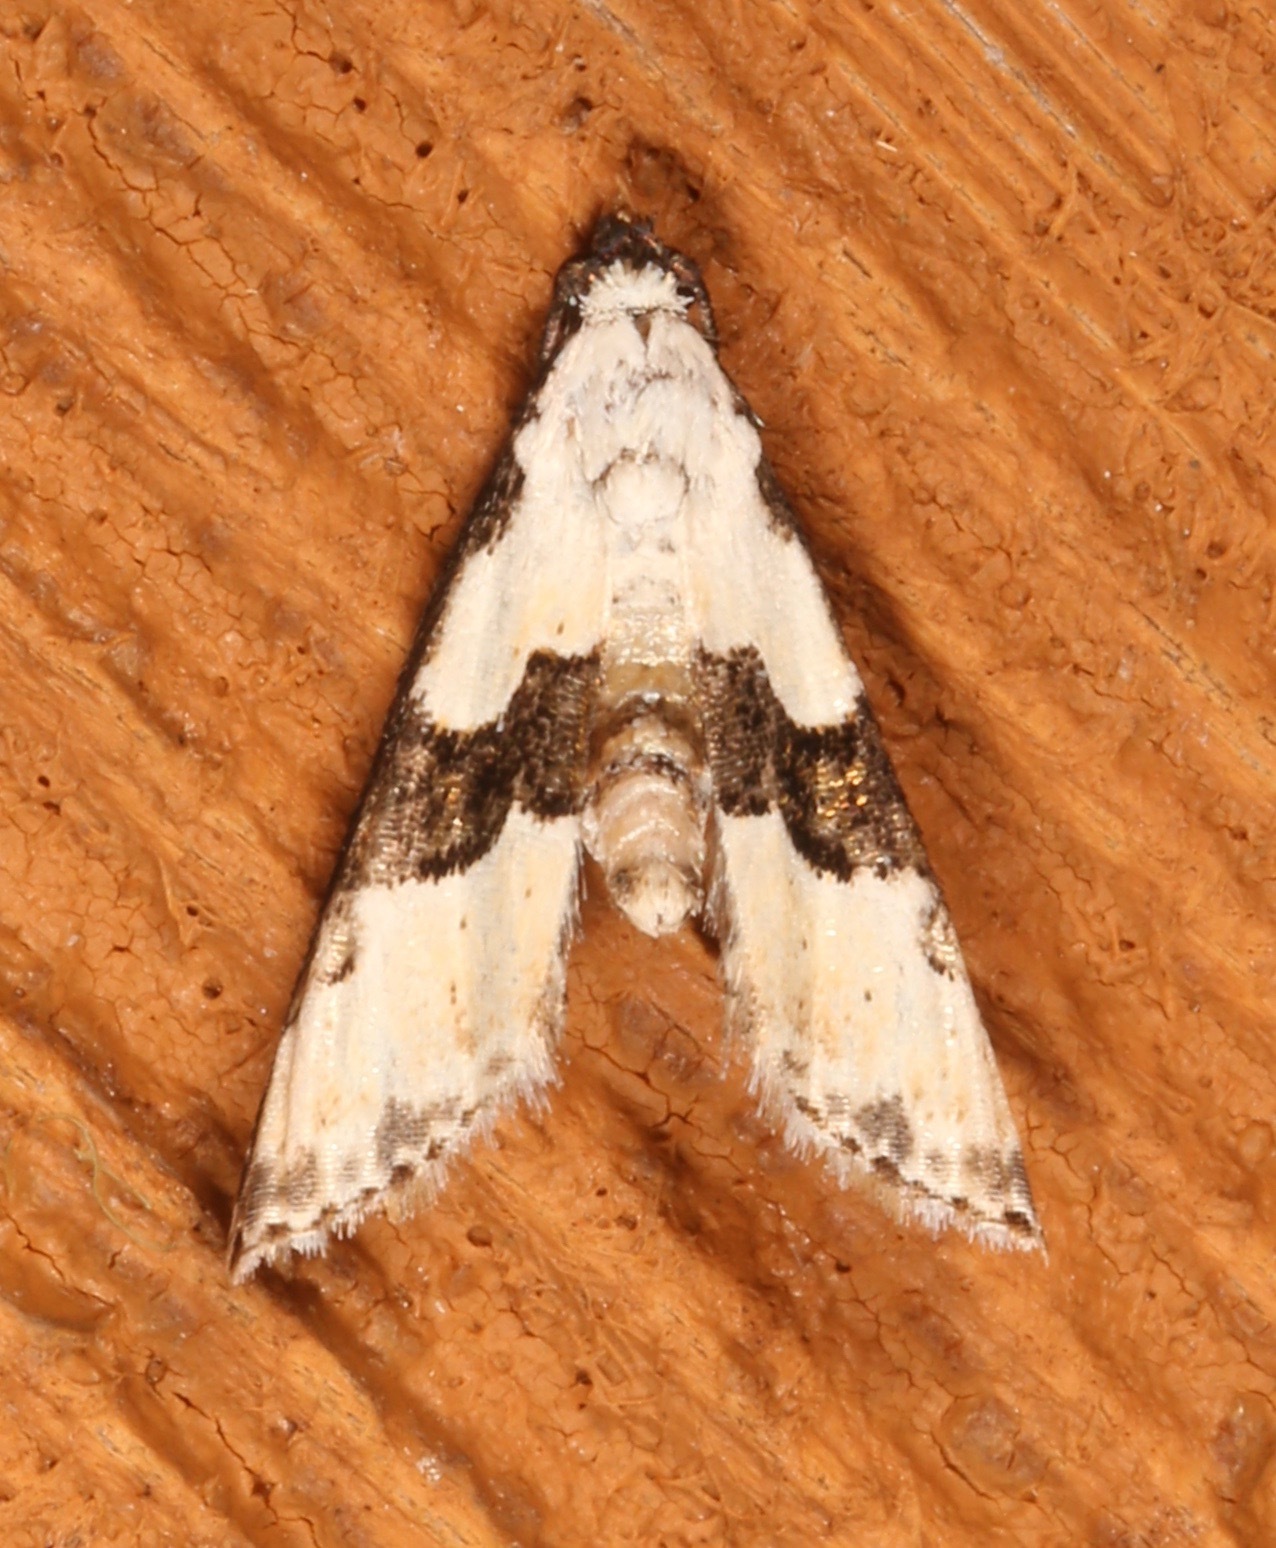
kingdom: Animalia
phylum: Arthropoda
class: Insecta
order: Lepidoptera
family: Noctuidae
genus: Nigetia
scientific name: Nigetia formosalis
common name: Thin-winged owlet
